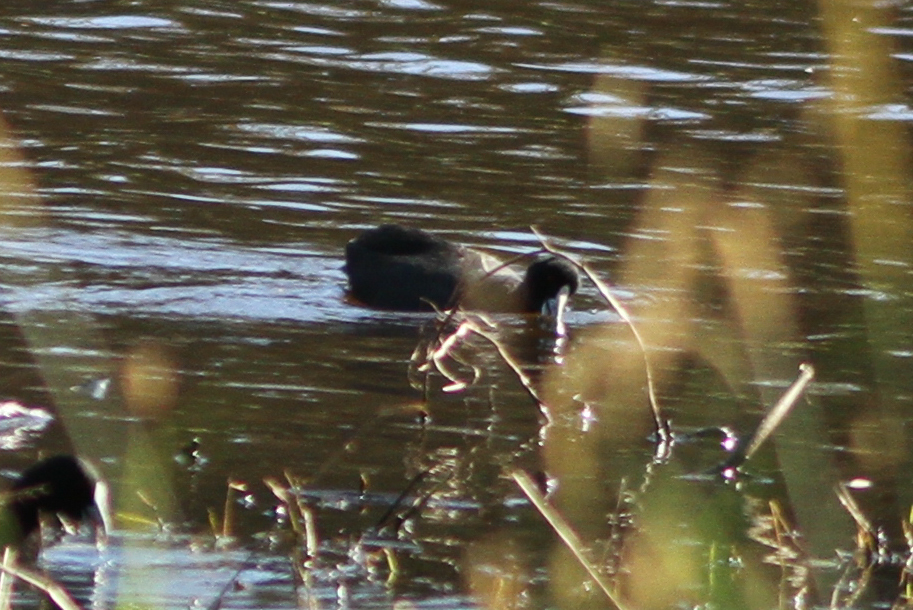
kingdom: Animalia
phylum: Chordata
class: Aves
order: Gruiformes
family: Rallidae
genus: Fulica
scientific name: Fulica atra
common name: Eurasian coot
